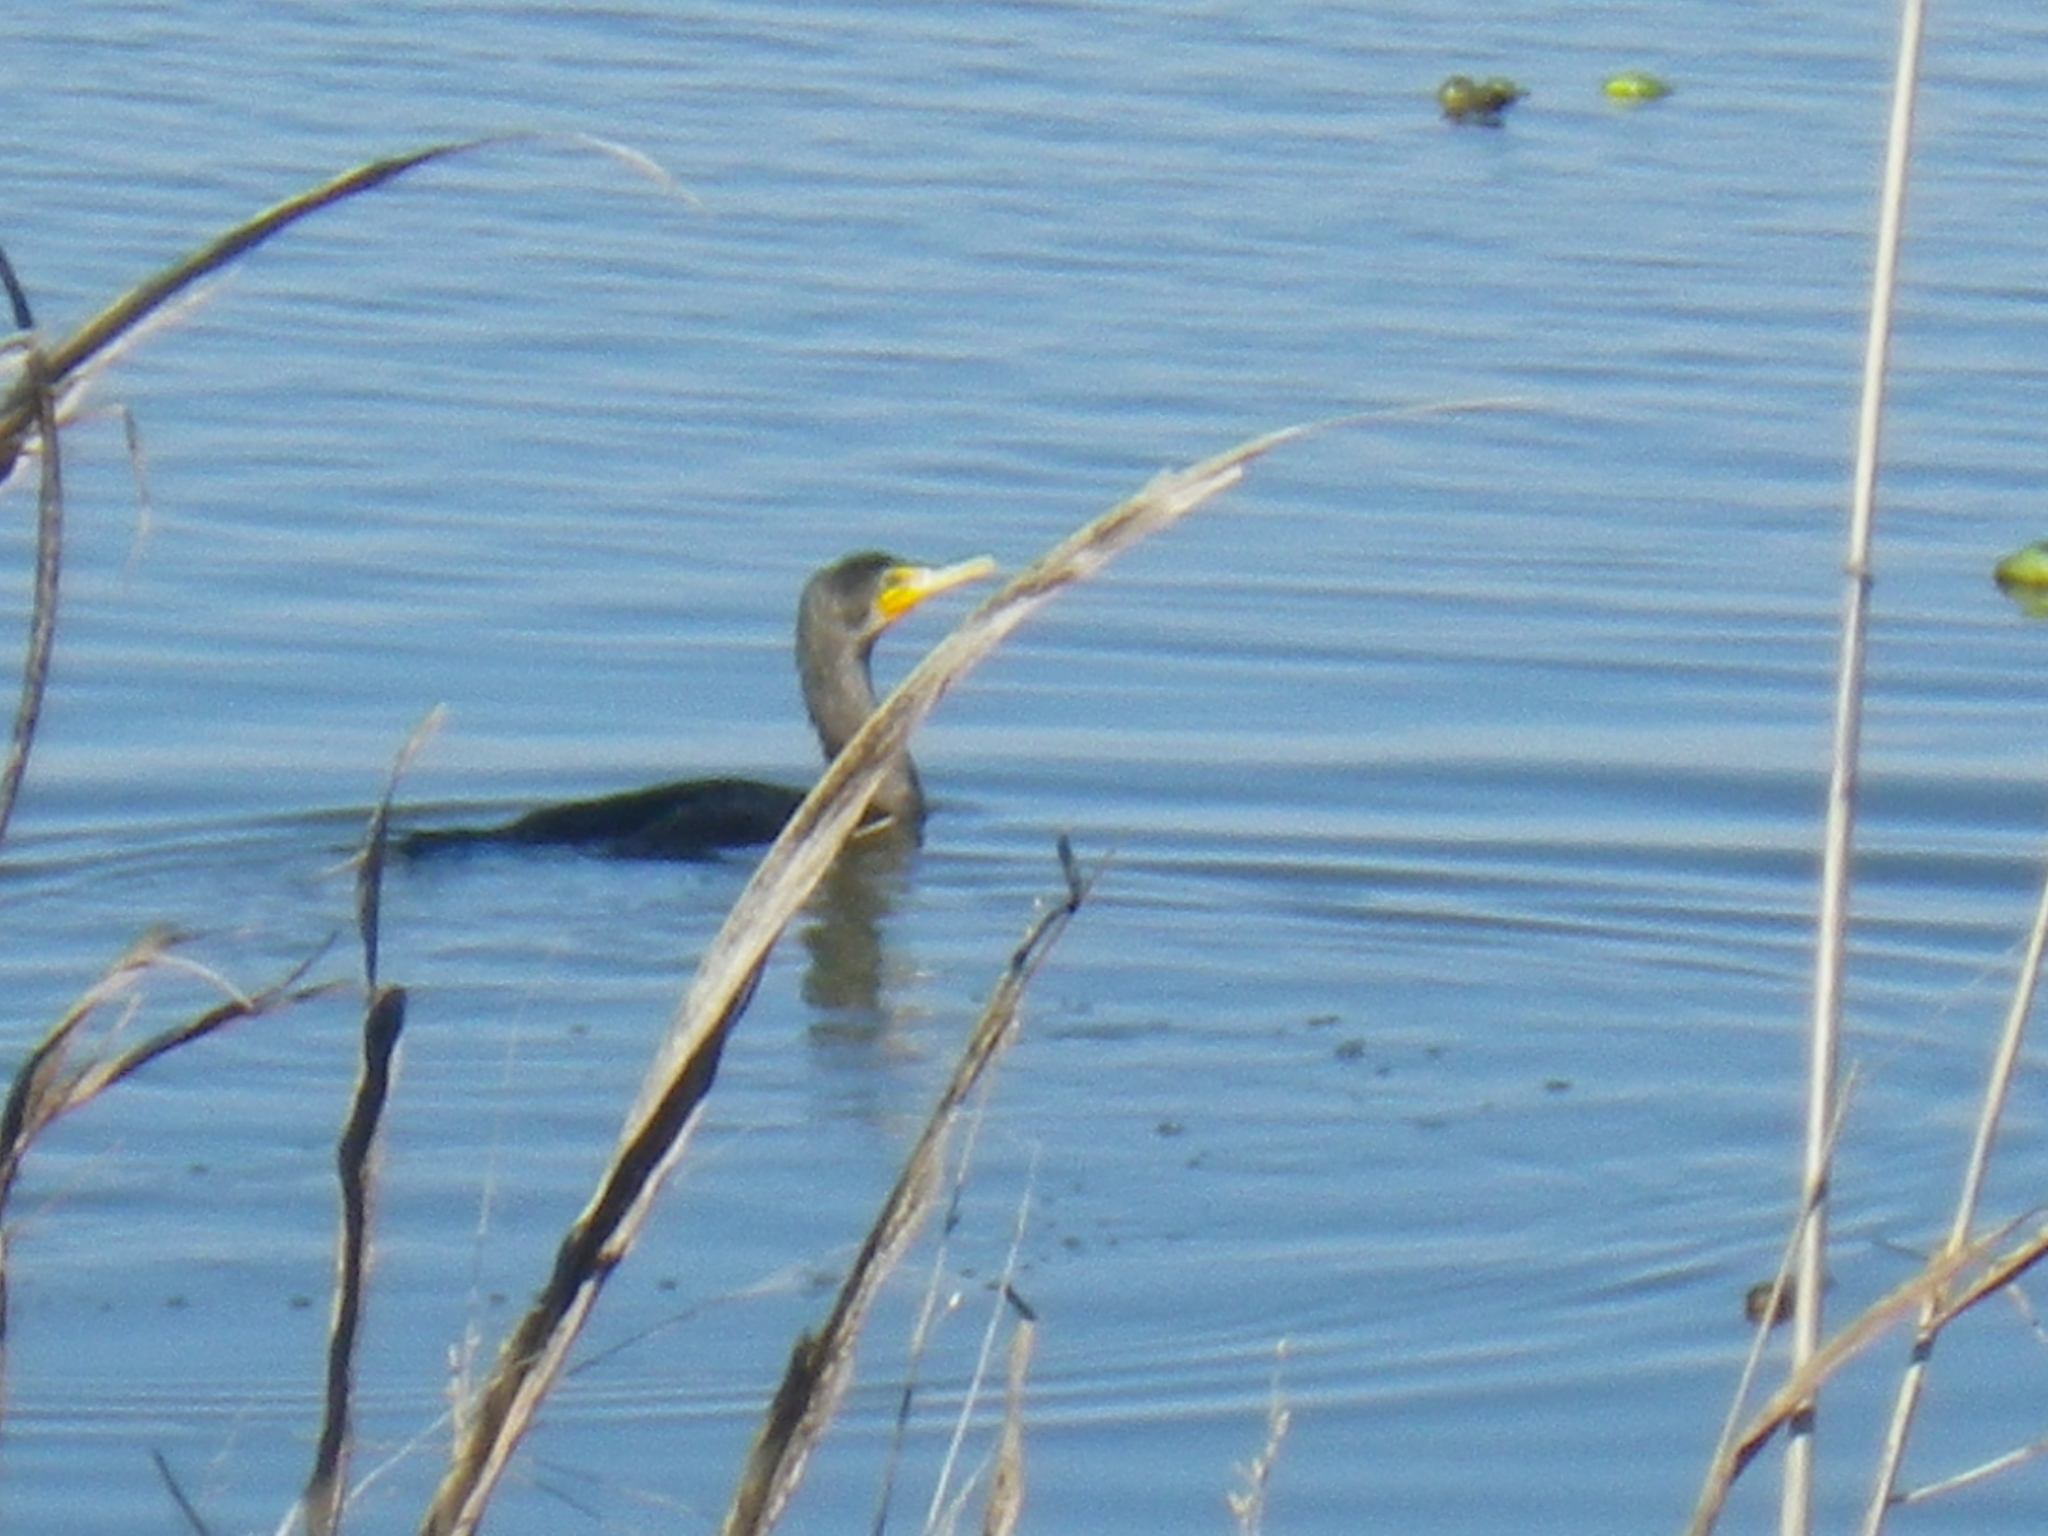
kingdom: Animalia
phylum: Chordata
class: Aves
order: Suliformes
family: Phalacrocoracidae
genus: Phalacrocorax
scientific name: Phalacrocorax auritus
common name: Double-crested cormorant
